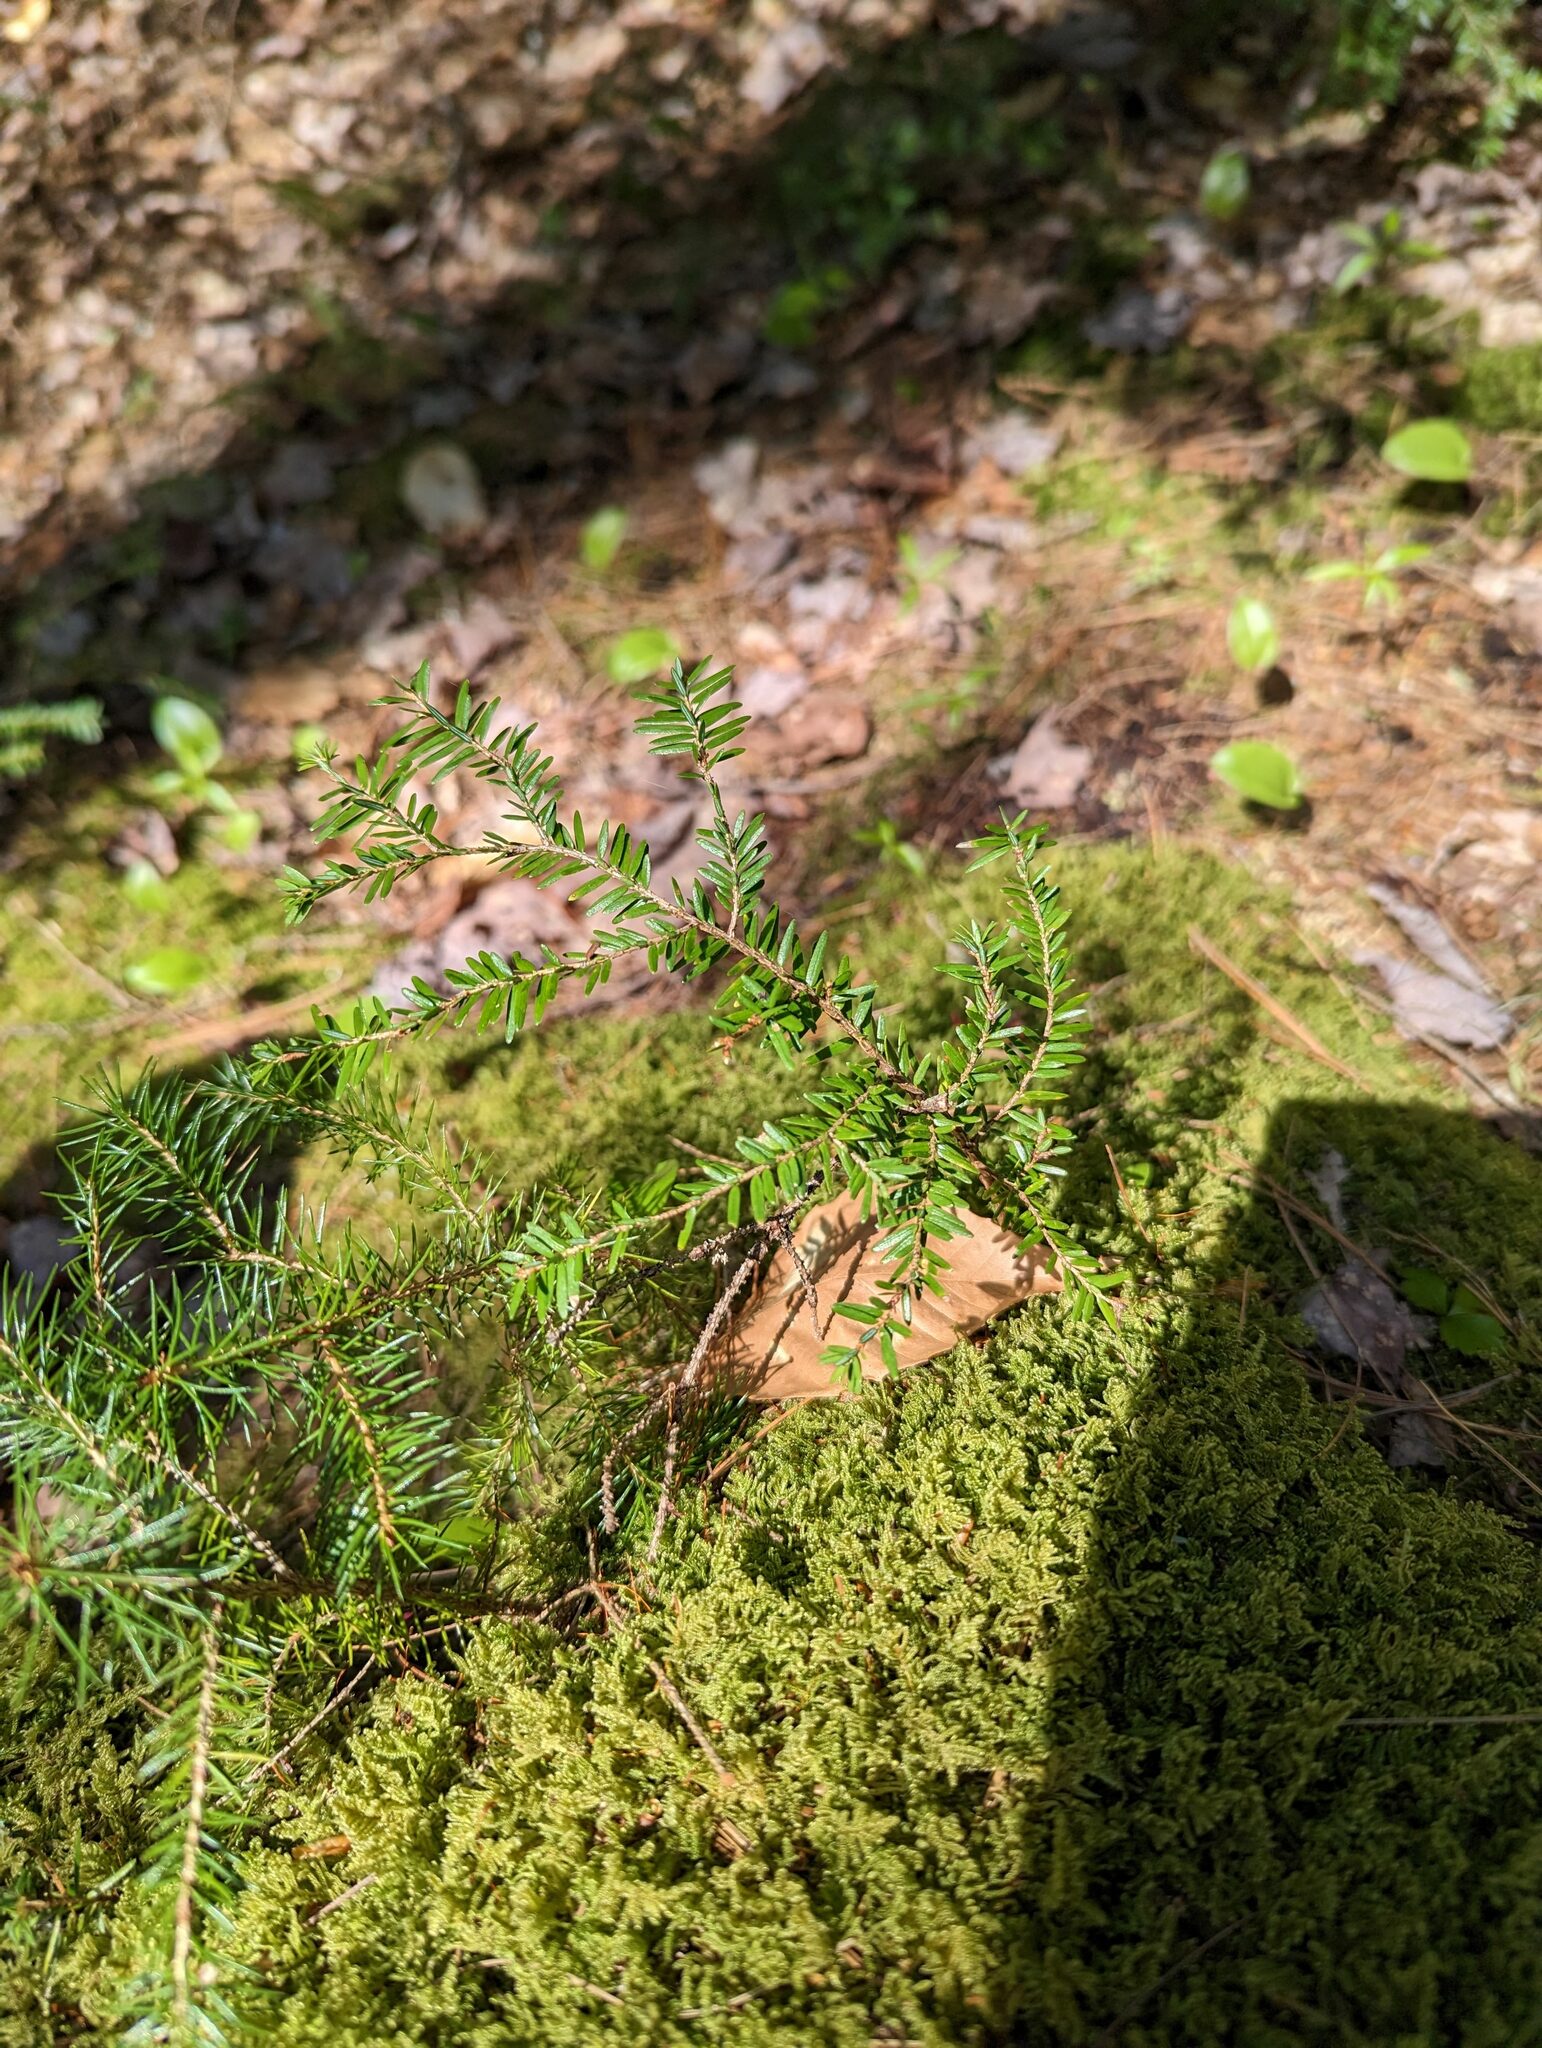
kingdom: Plantae
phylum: Tracheophyta
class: Pinopsida
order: Pinales
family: Pinaceae
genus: Tsuga
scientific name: Tsuga canadensis
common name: Eastern hemlock
